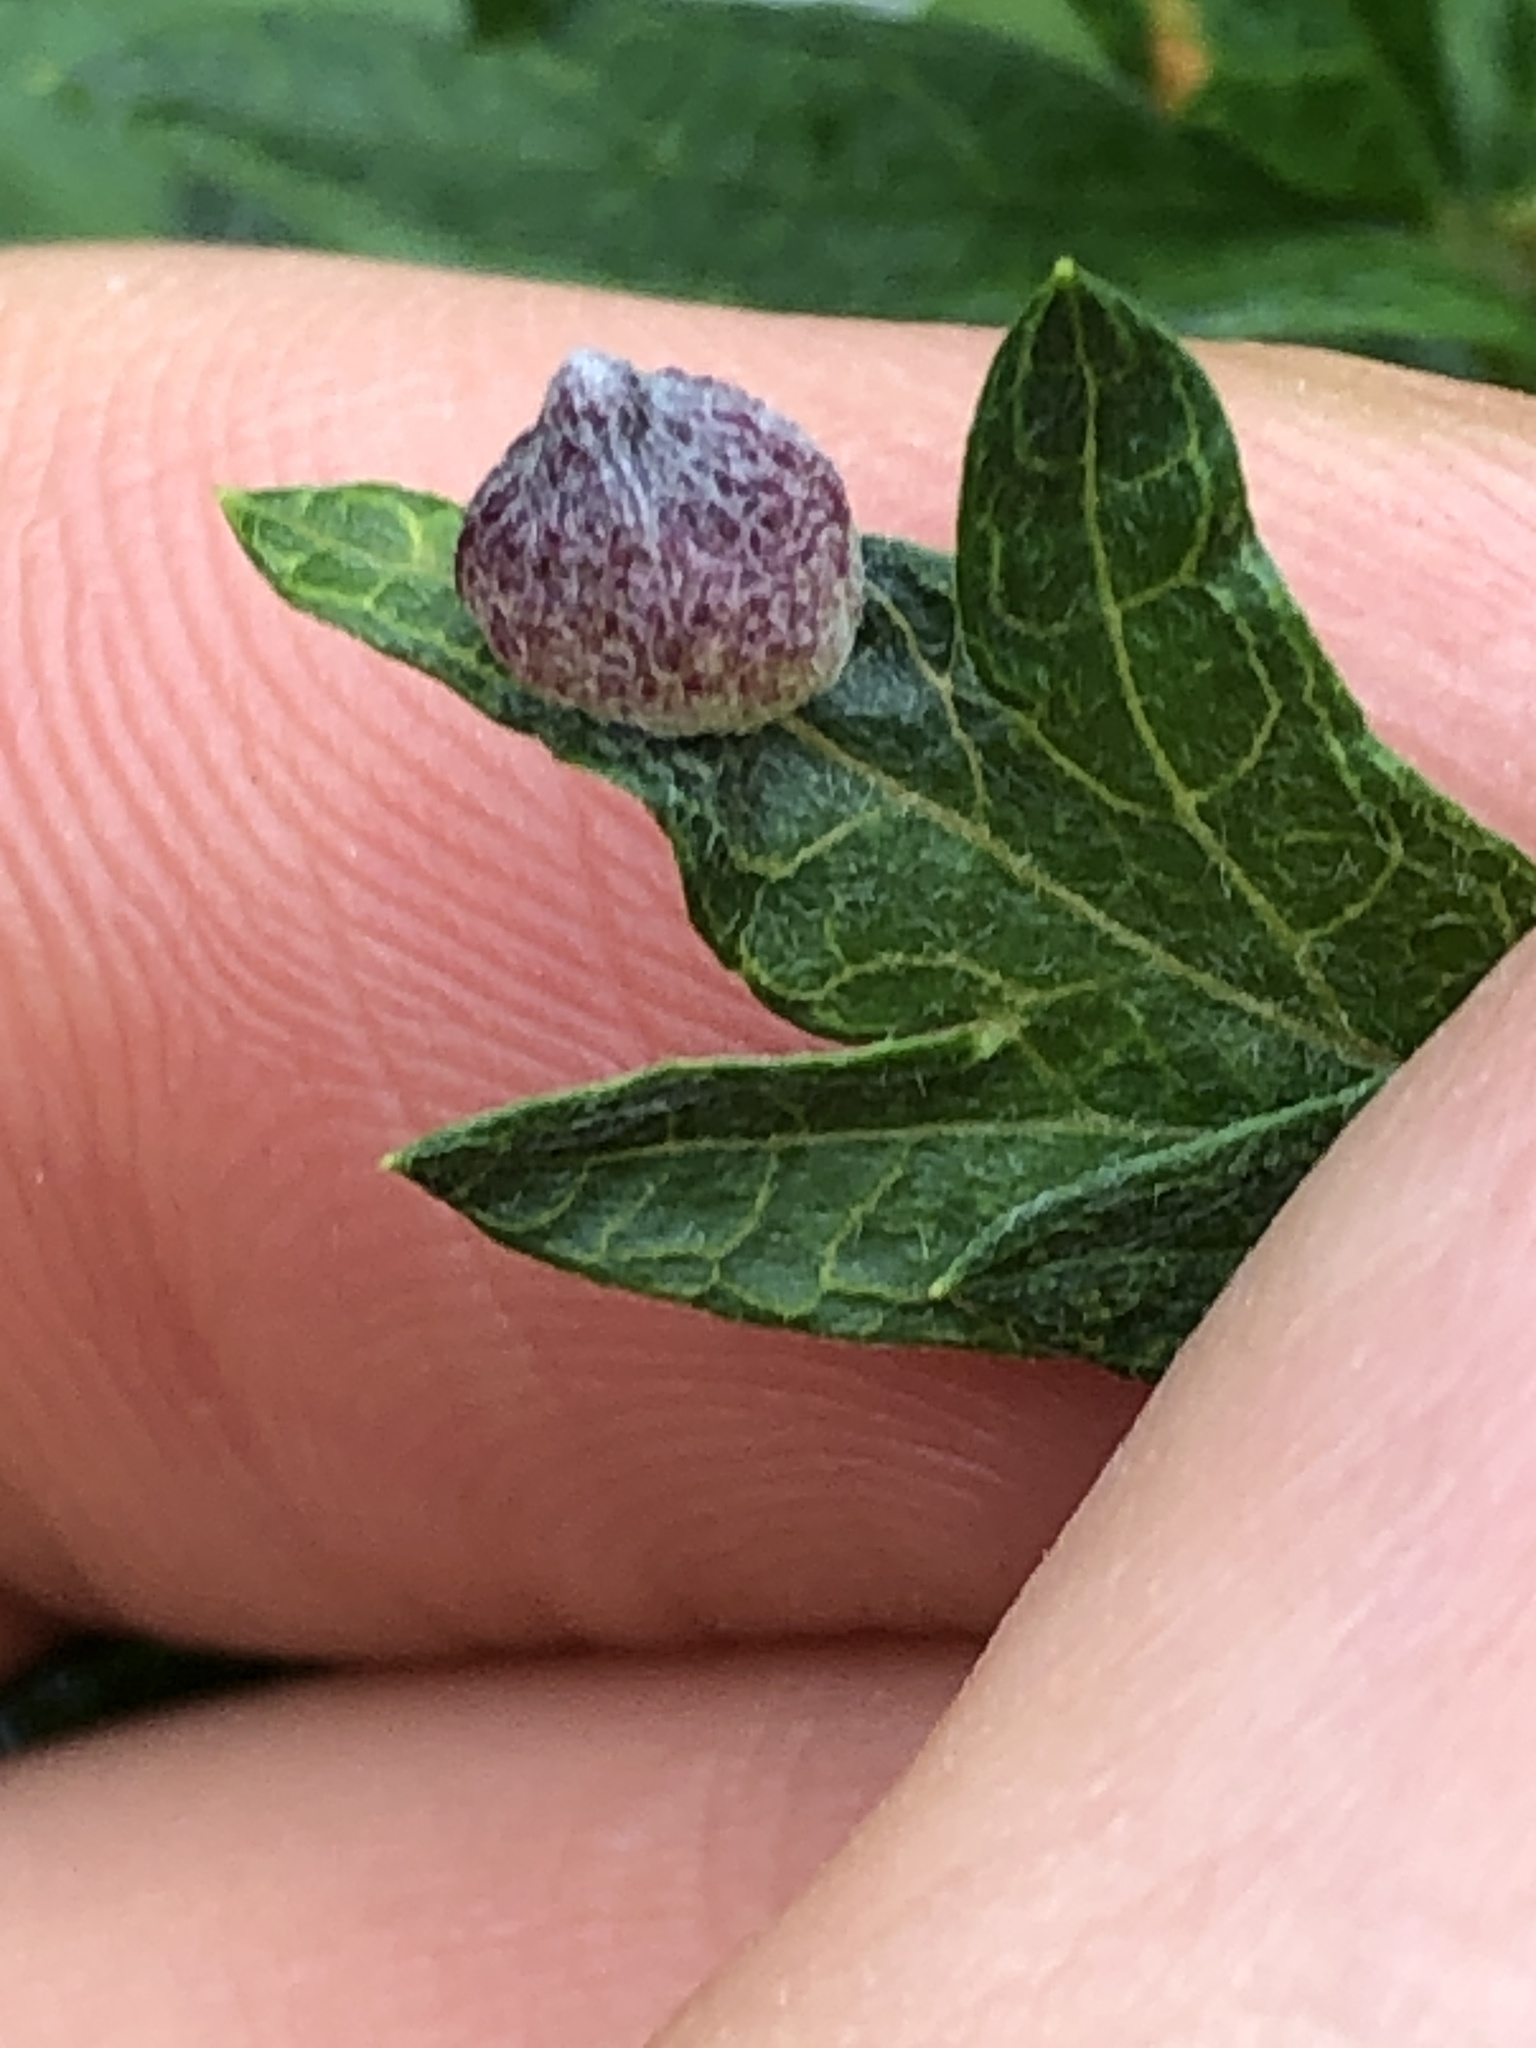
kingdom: Animalia
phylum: Arthropoda
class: Insecta
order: Diptera
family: Cecidomyiidae
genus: Rhopalomyia
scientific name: Rhopalomyia yomogicola
